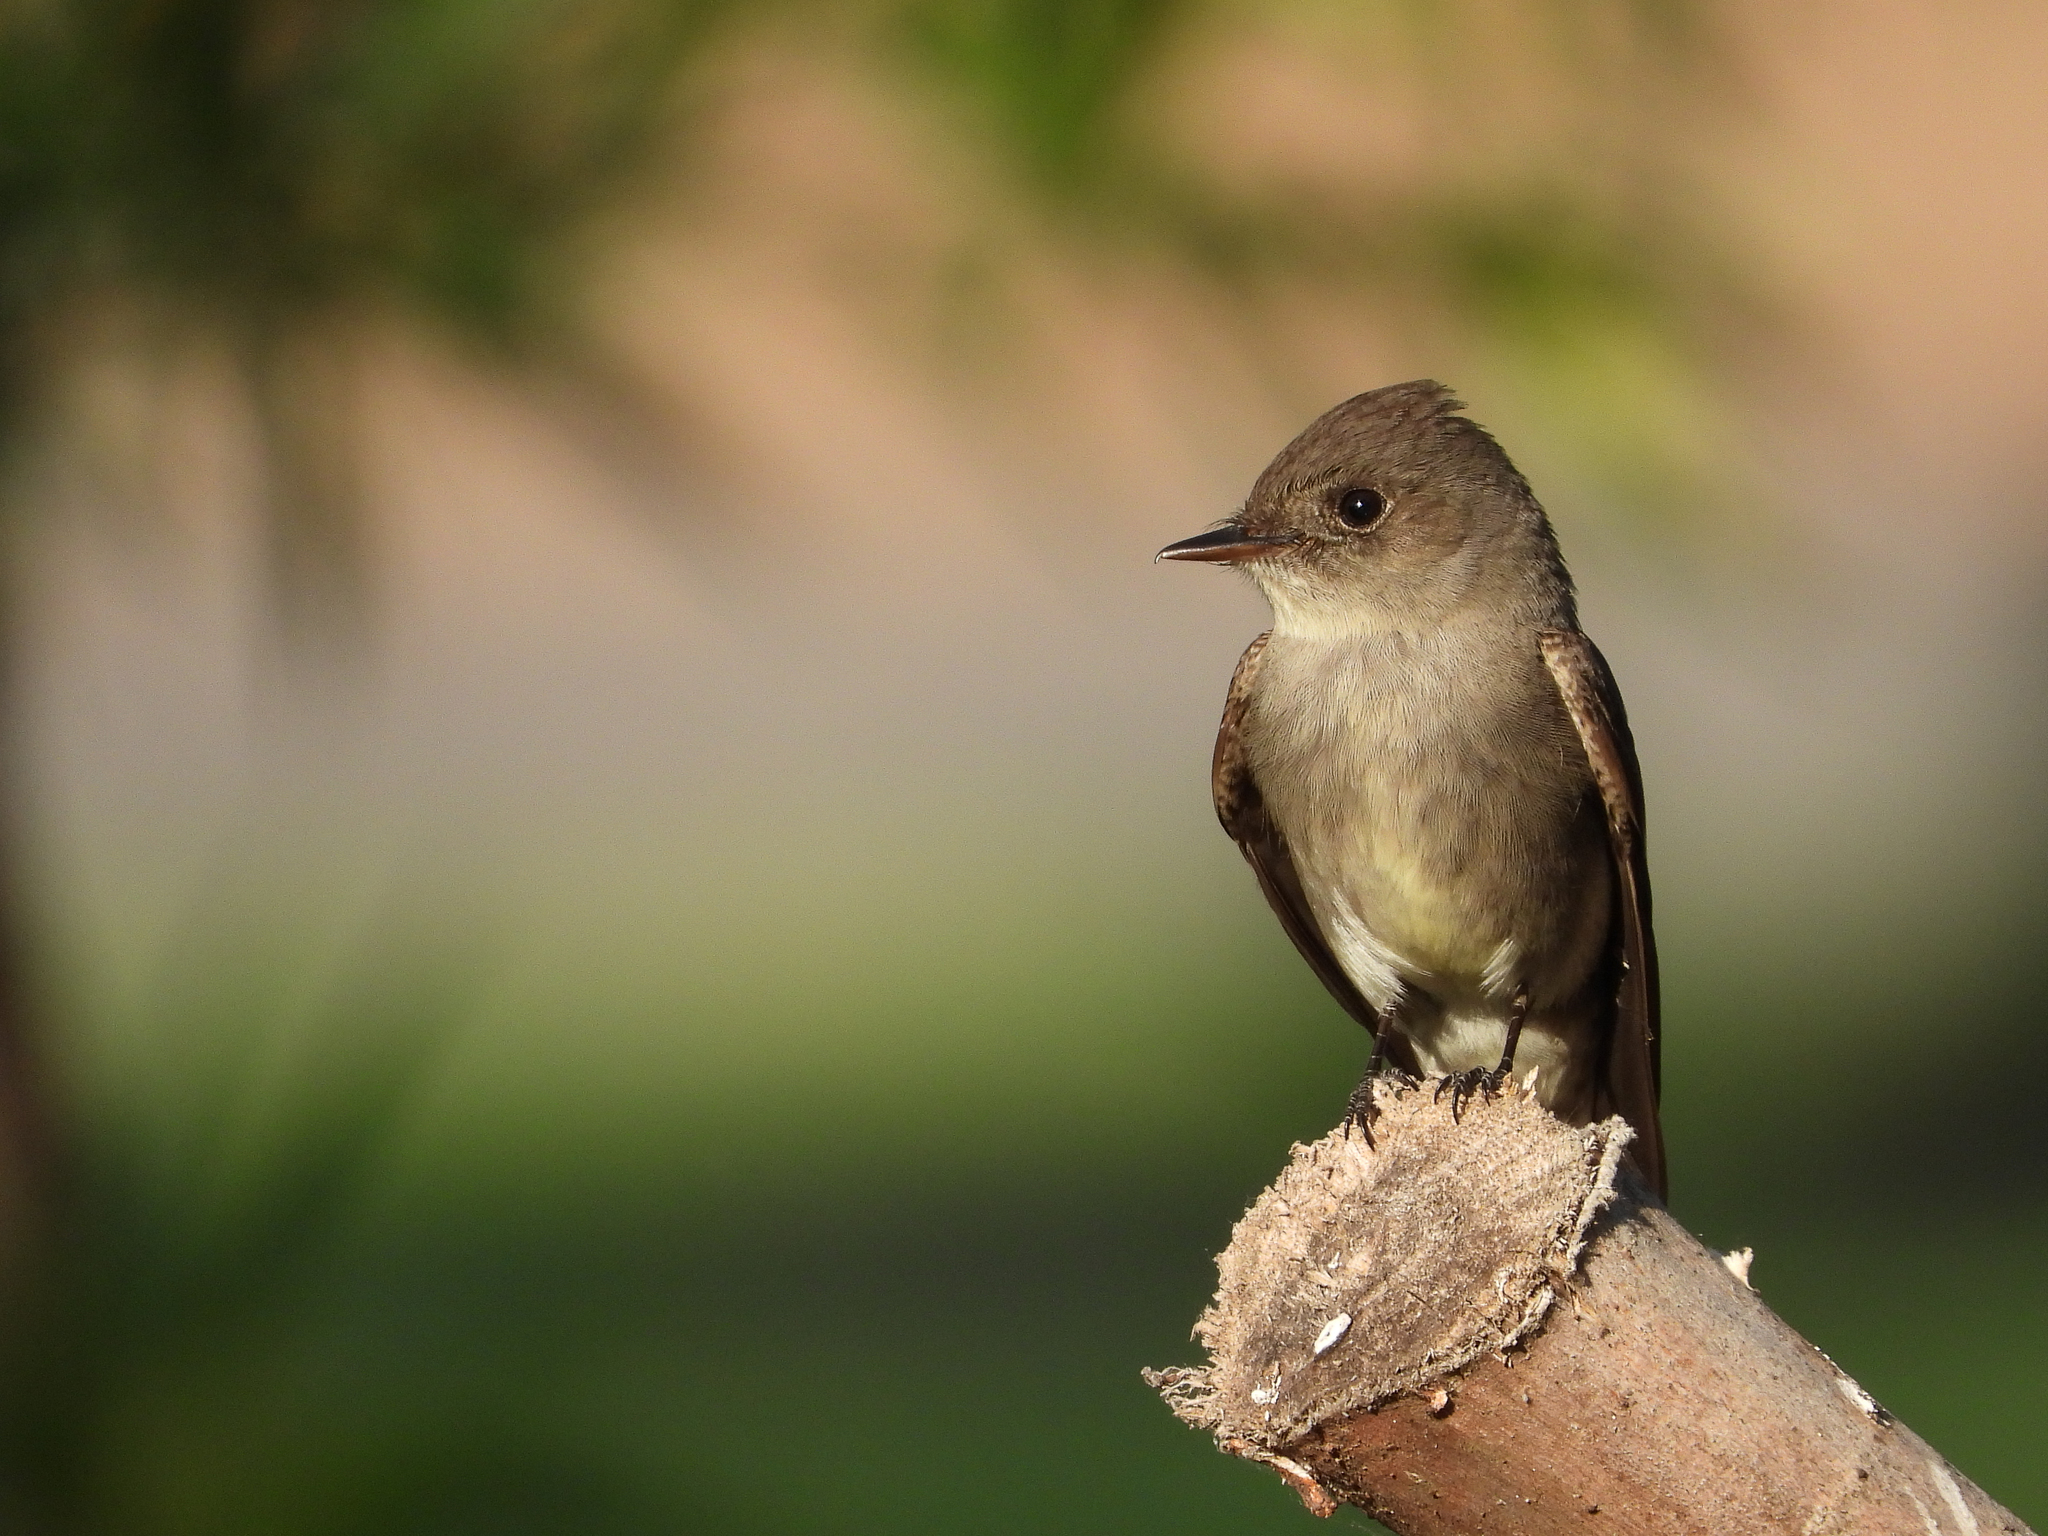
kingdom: Animalia
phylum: Chordata
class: Aves
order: Passeriformes
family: Tyrannidae
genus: Contopus
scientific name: Contopus sordidulus
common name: Western wood-pewee
